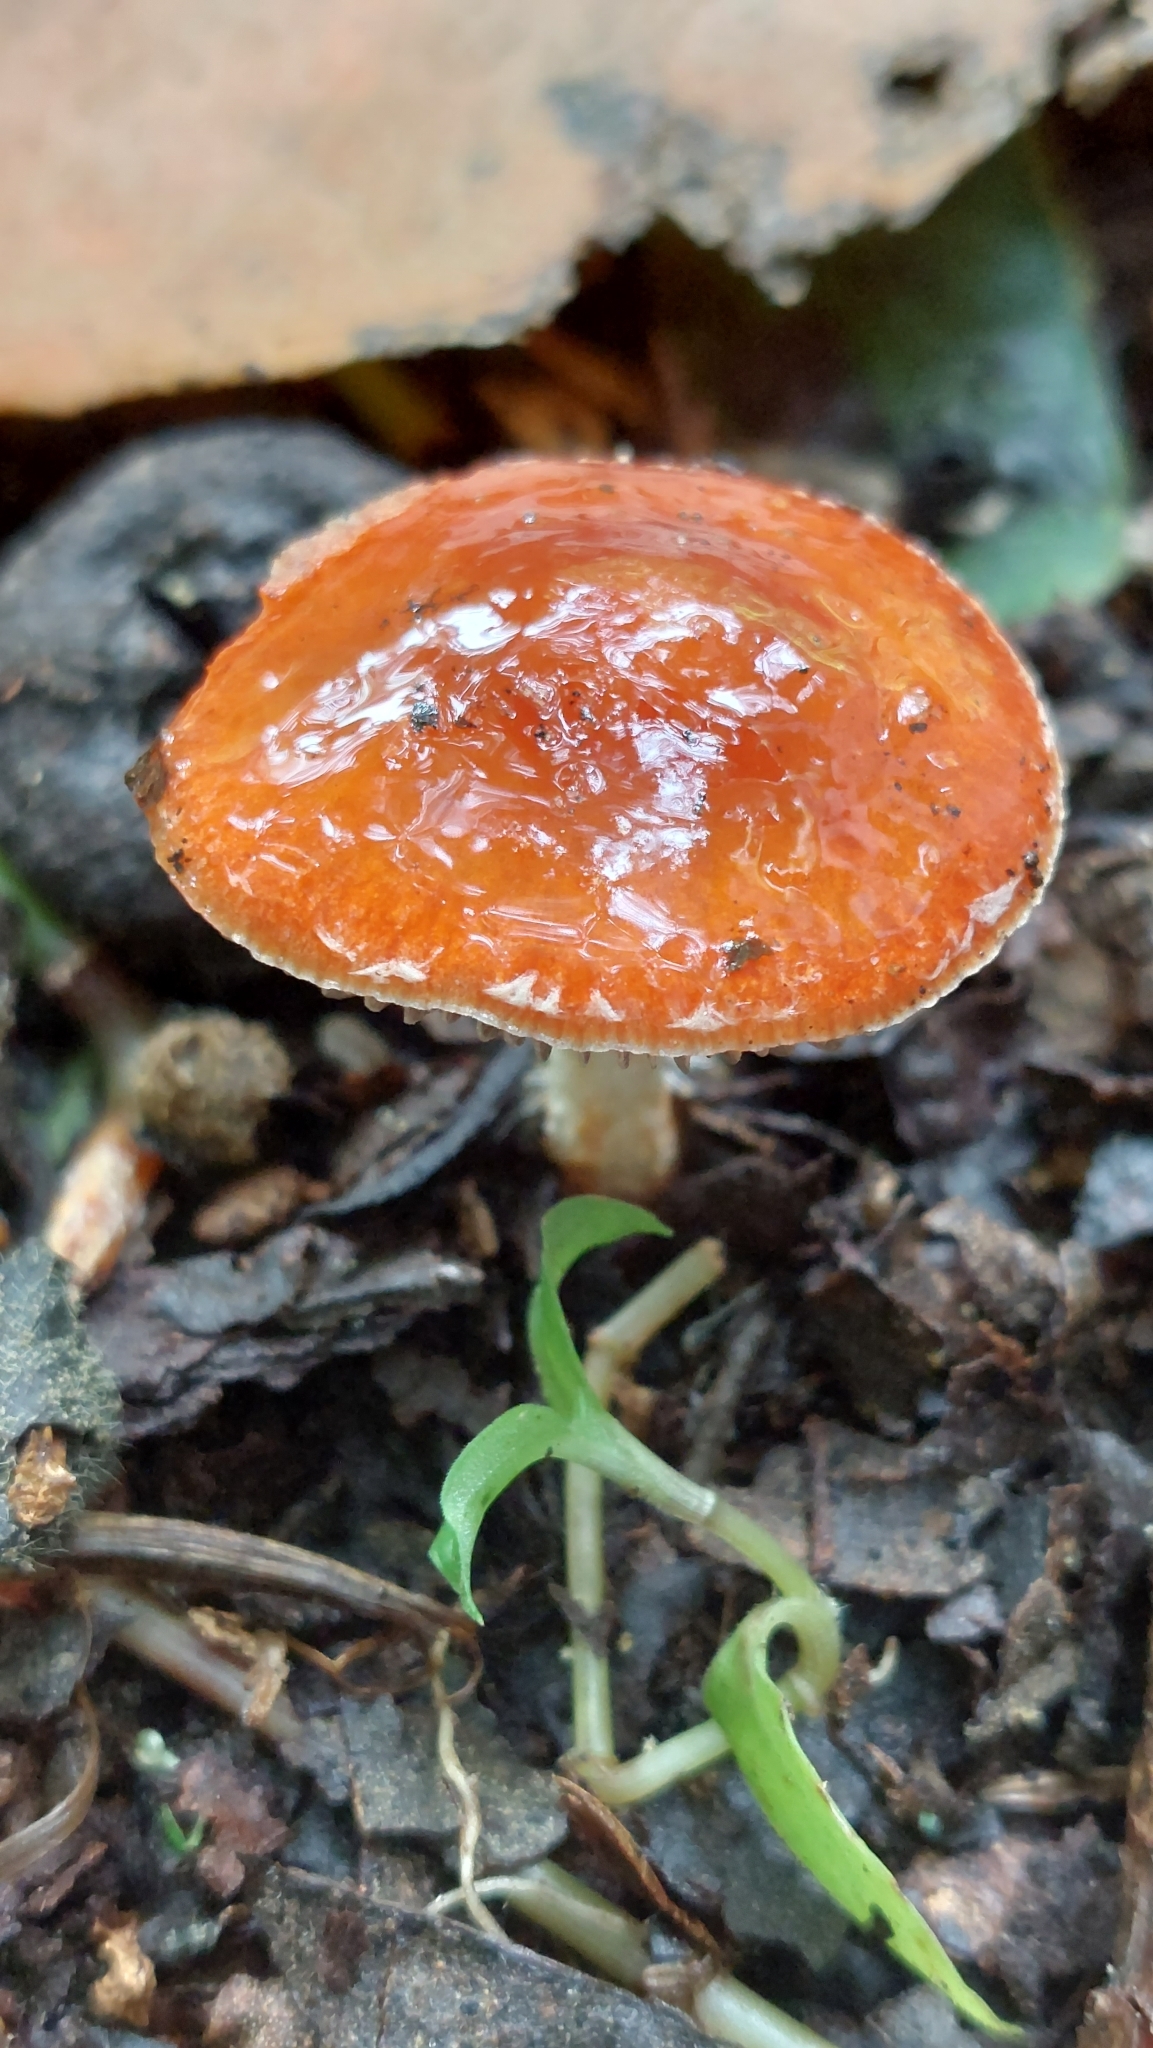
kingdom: Fungi
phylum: Basidiomycota
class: Agaricomycetes
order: Agaricales
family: Strophariaceae
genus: Leratiomyces
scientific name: Leratiomyces ceres
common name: Redlead roundhead
